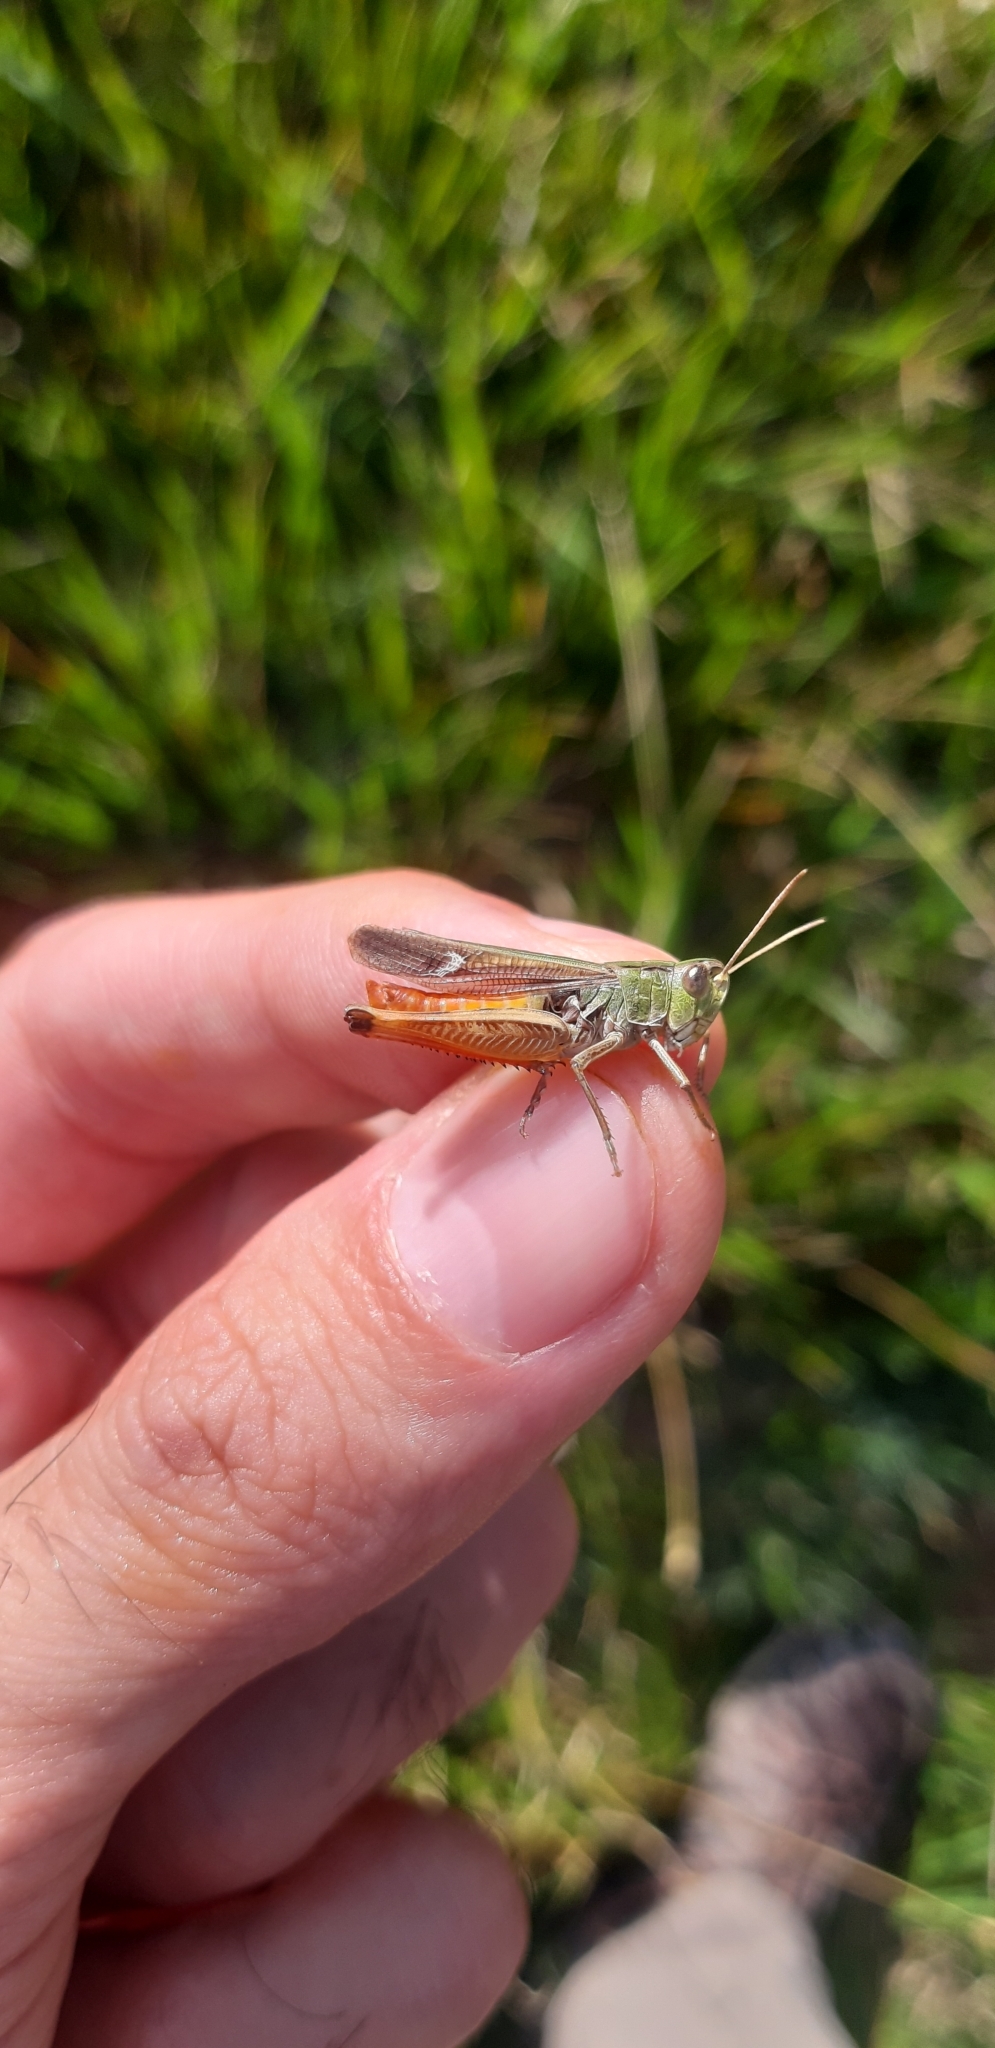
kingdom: Animalia
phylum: Arthropoda
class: Insecta
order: Orthoptera
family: Acrididae
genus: Stenobothrus
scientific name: Stenobothrus lineatus
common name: Stripe-winged grasshopper
